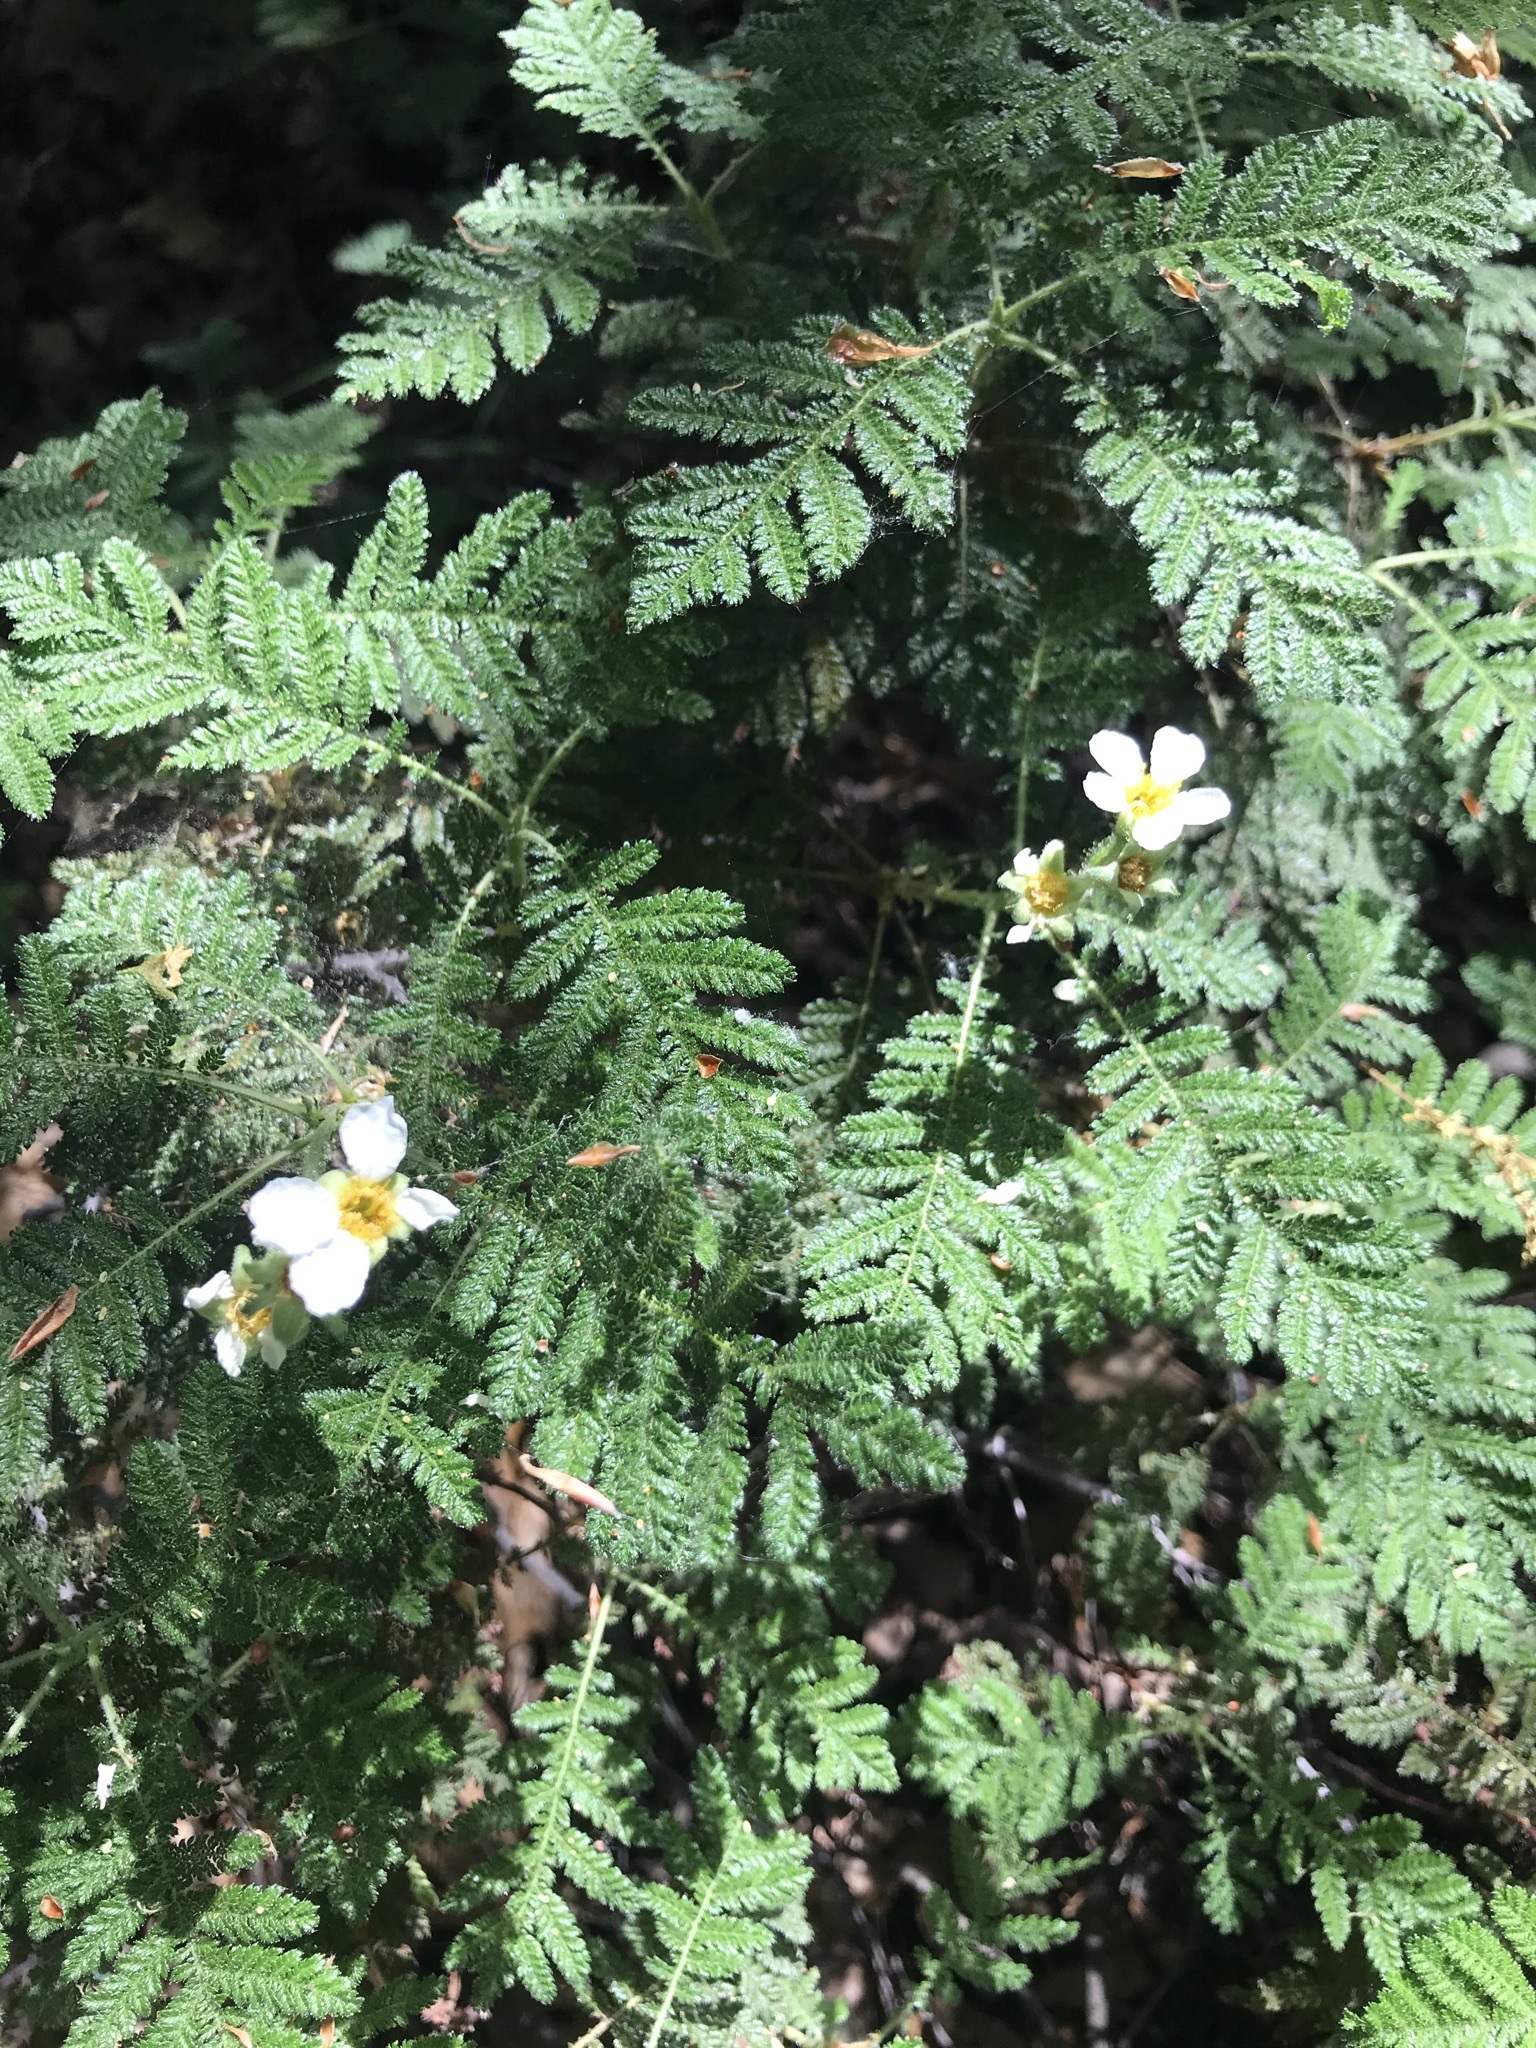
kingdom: Plantae
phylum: Tracheophyta
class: Magnoliopsida
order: Rosales
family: Rosaceae
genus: Chamaebatia
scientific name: Chamaebatia foliolosa
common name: Mountain misery
